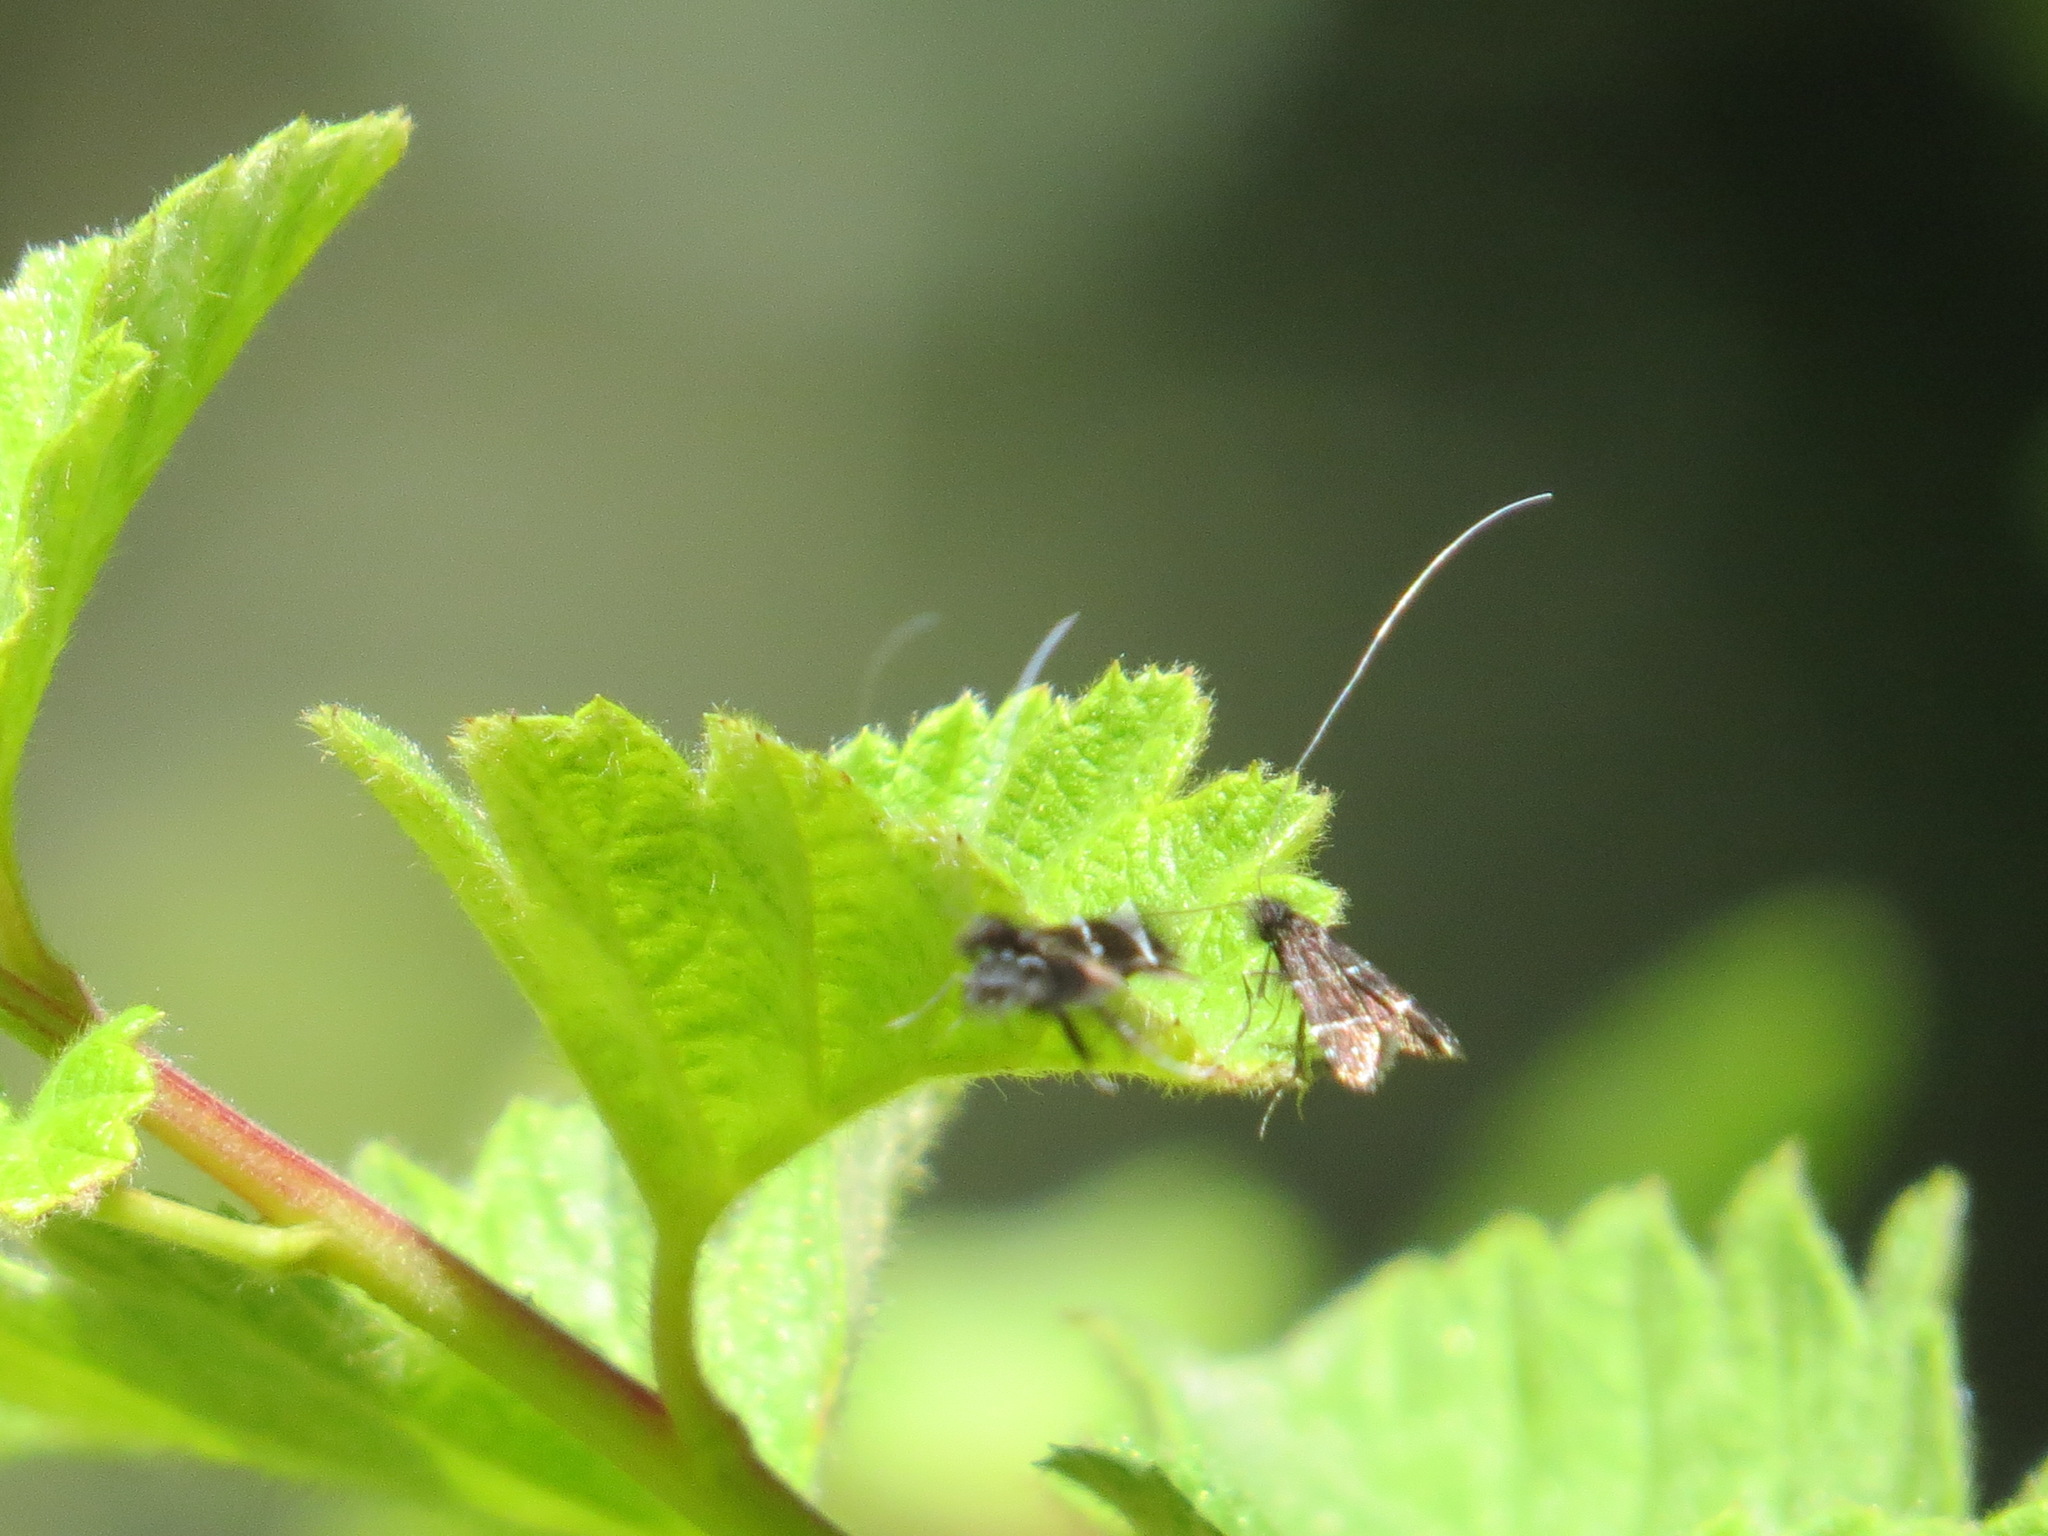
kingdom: Animalia
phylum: Arthropoda
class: Insecta
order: Lepidoptera
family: Adelidae
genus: Adela
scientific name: Adela septentrionella
